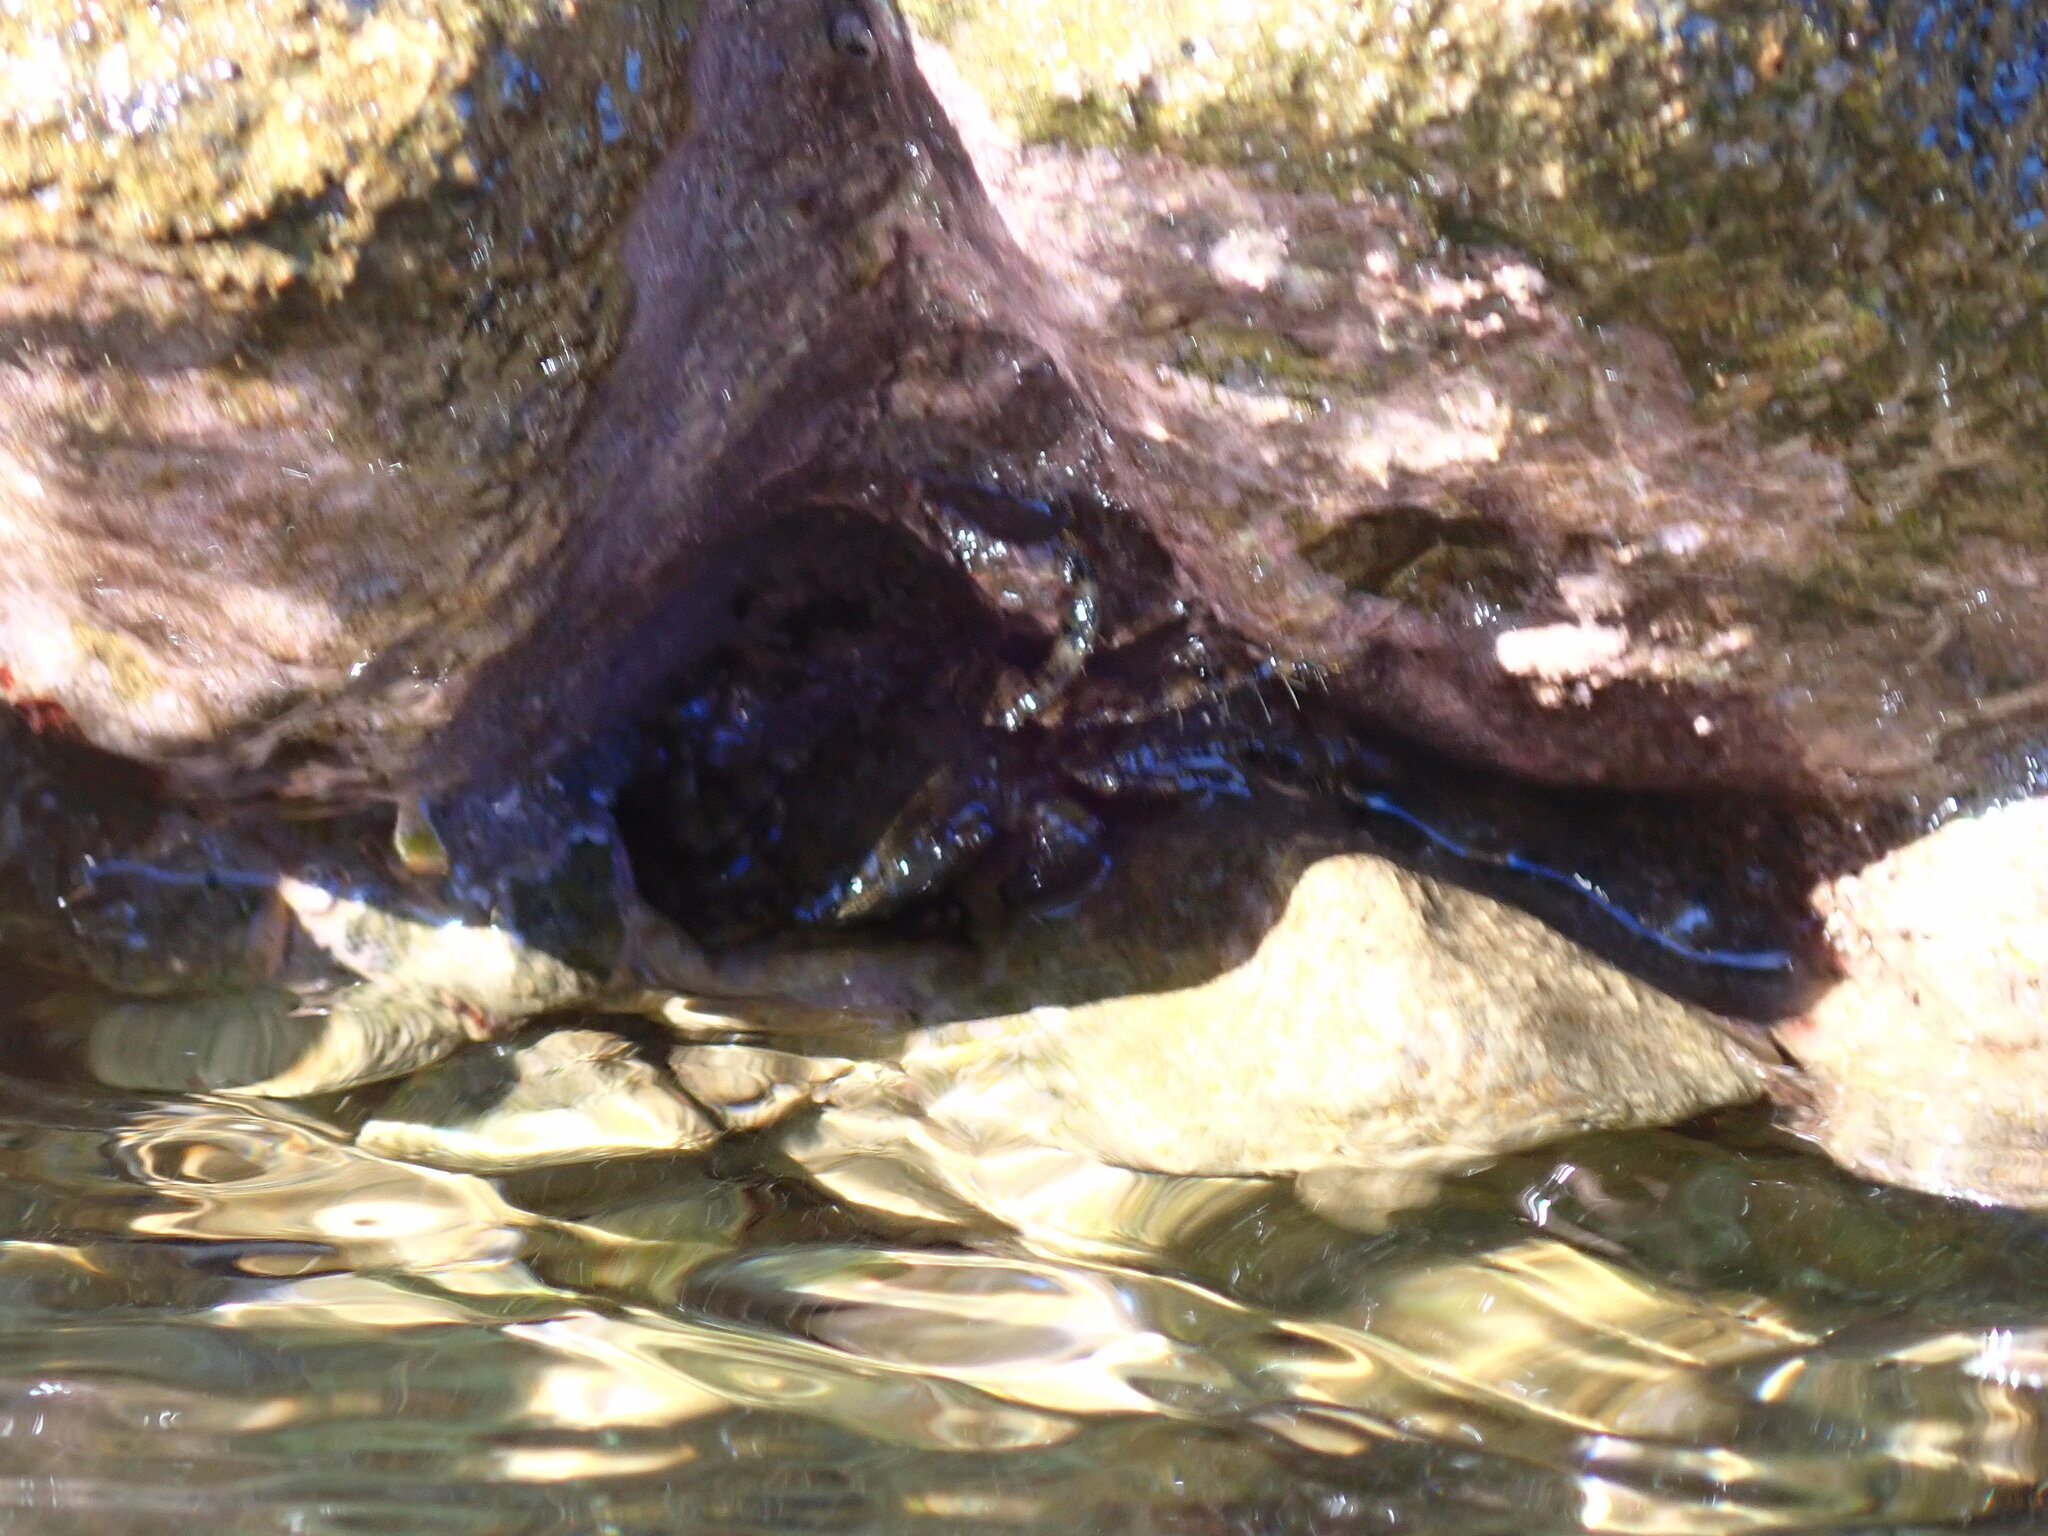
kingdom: Animalia
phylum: Arthropoda
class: Malacostraca
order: Decapoda
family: Grapsidae
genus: Pachygrapsus
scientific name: Pachygrapsus marmoratus
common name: Marbled rock crab
